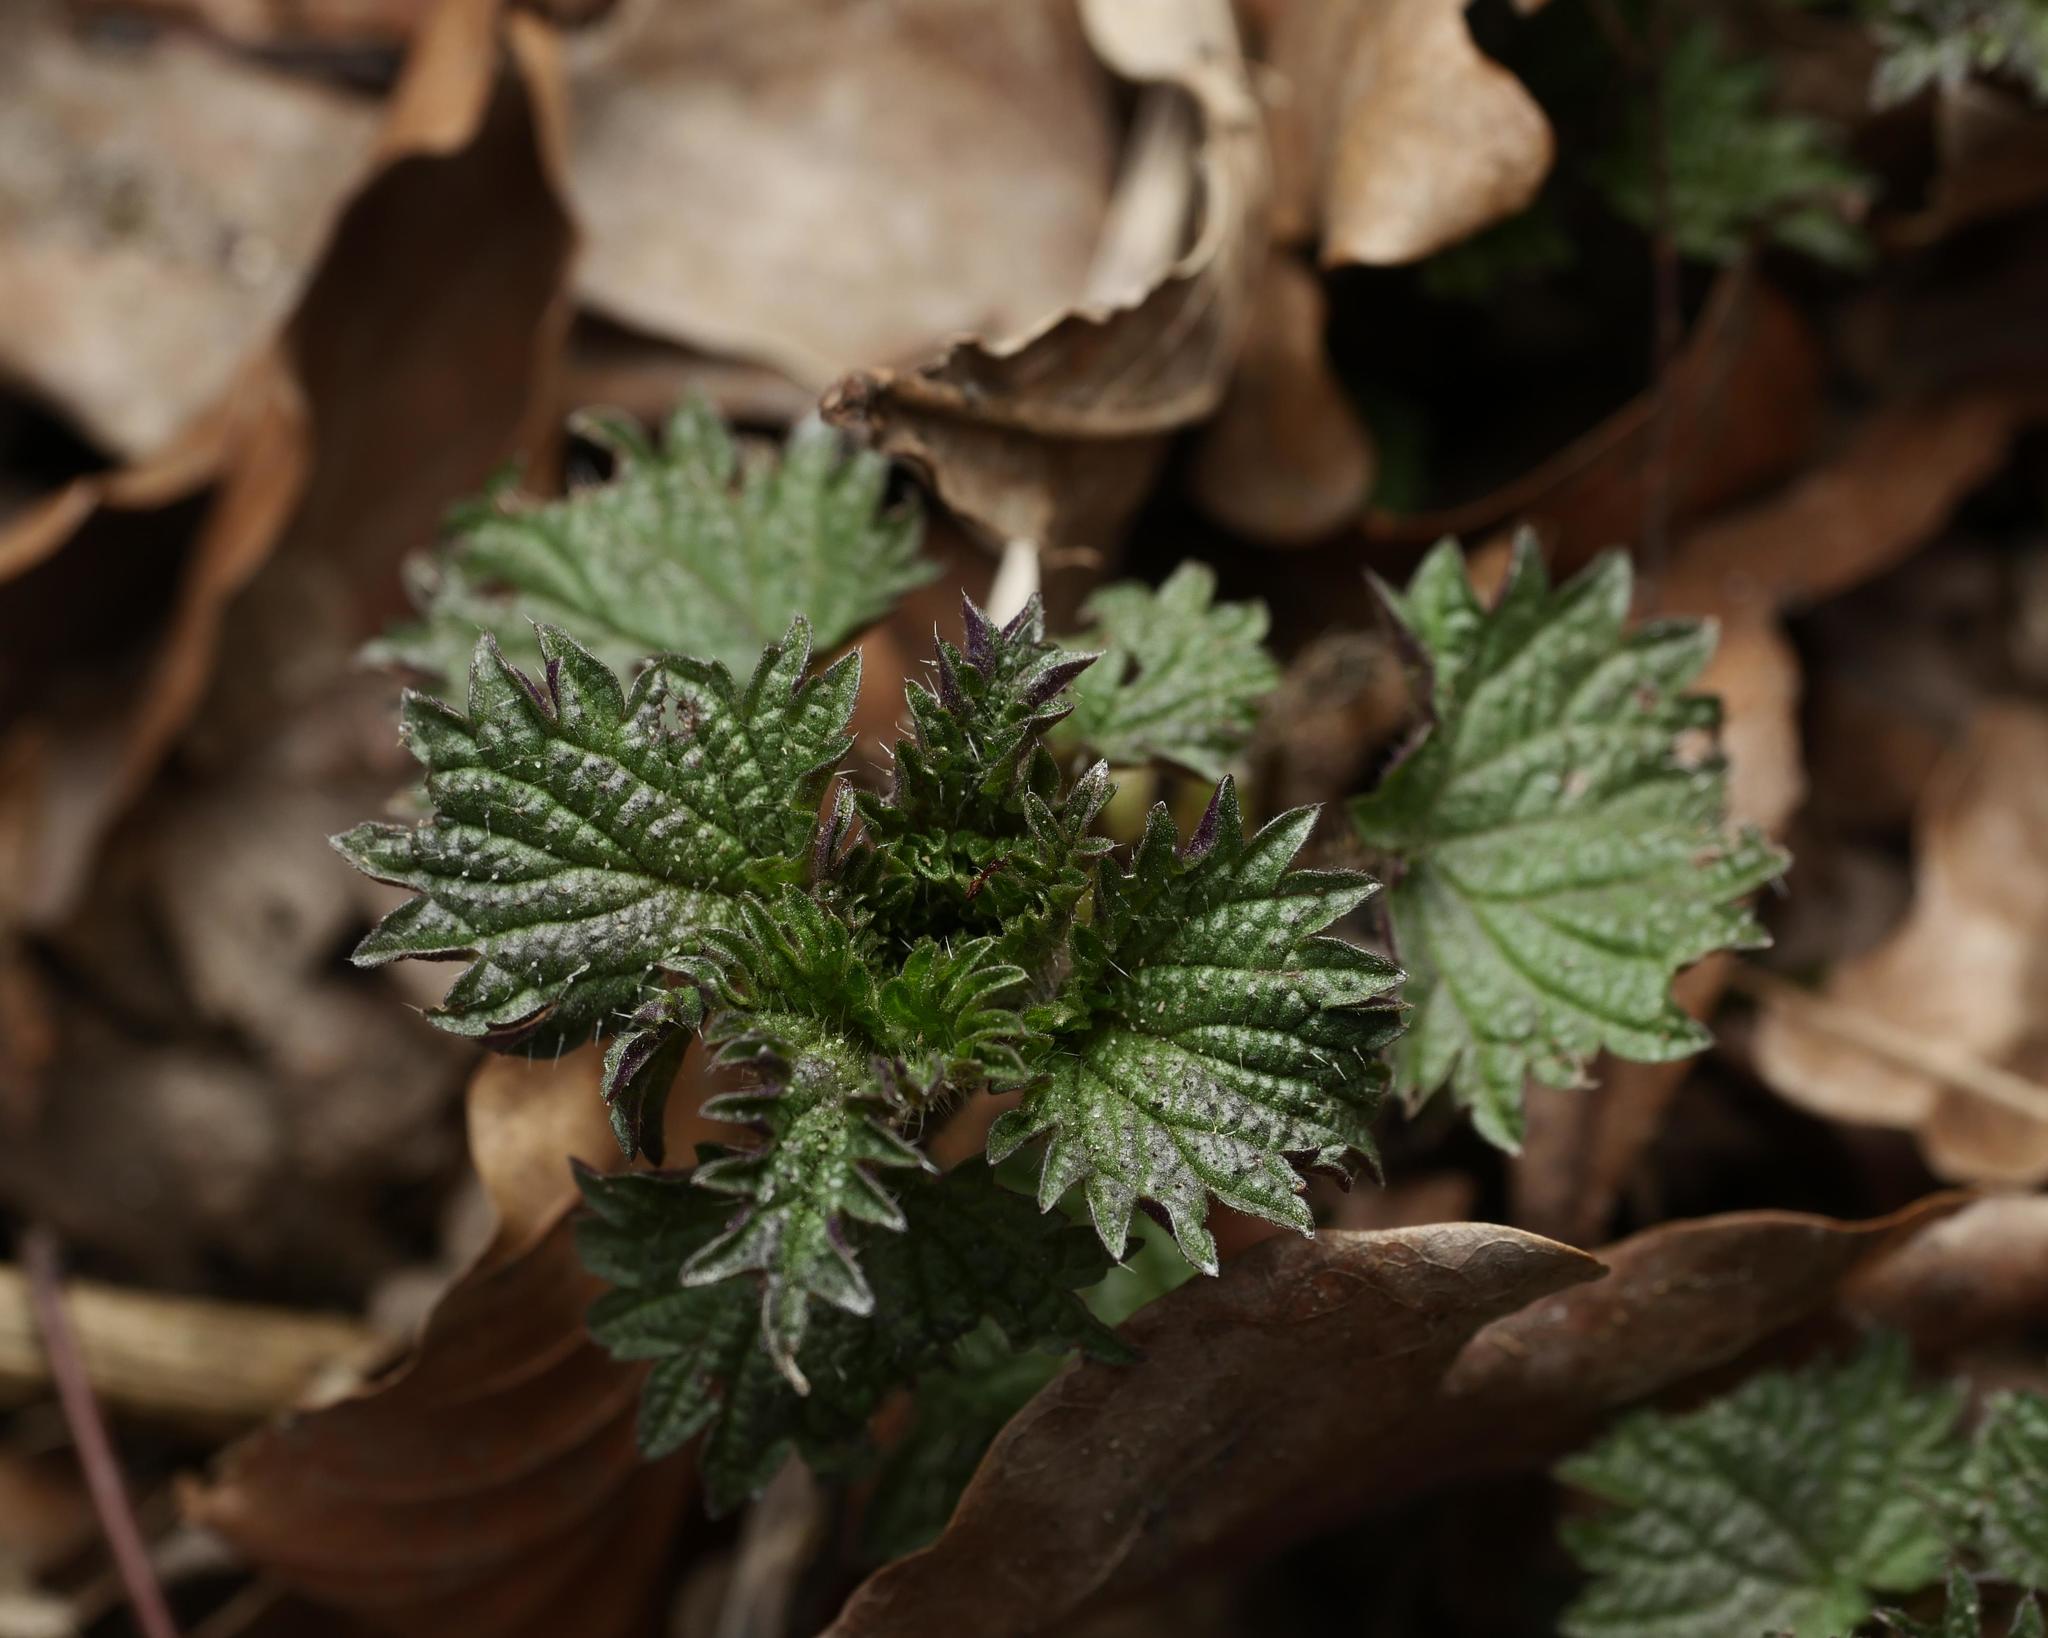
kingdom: Plantae
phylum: Tracheophyta
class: Magnoliopsida
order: Rosales
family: Urticaceae
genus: Urtica
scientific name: Urtica dioica
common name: Common nettle
